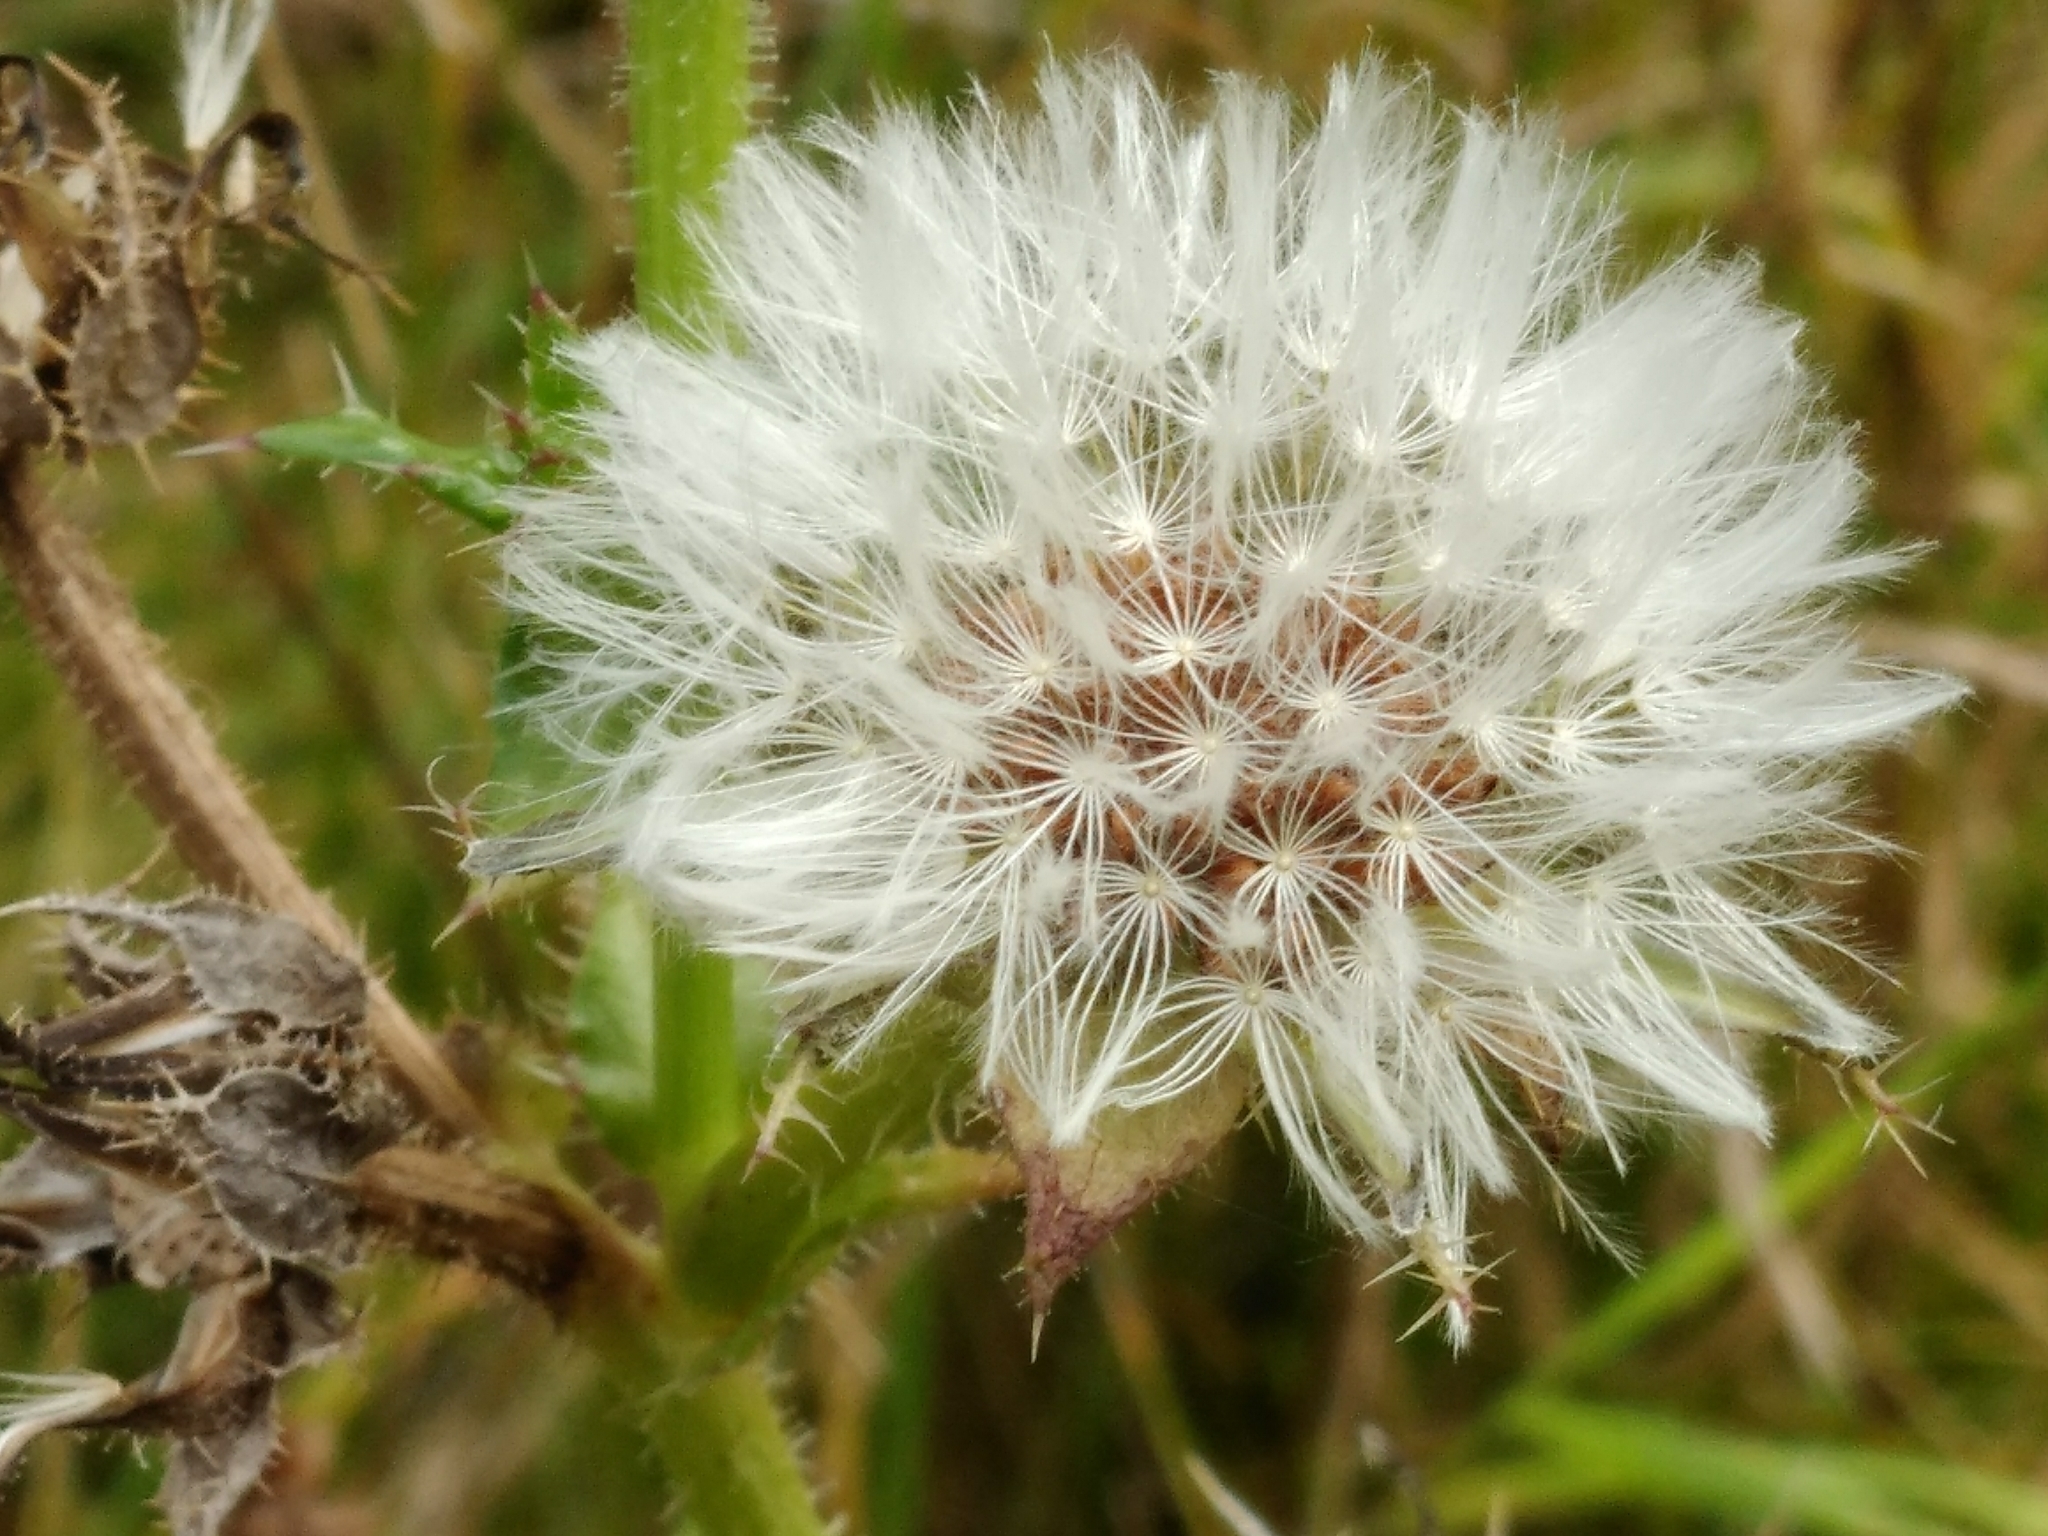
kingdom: Plantae
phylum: Tracheophyta
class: Magnoliopsida
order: Asterales
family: Asteraceae
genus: Helminthotheca
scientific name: Helminthotheca echioides
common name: Ox-tongue
